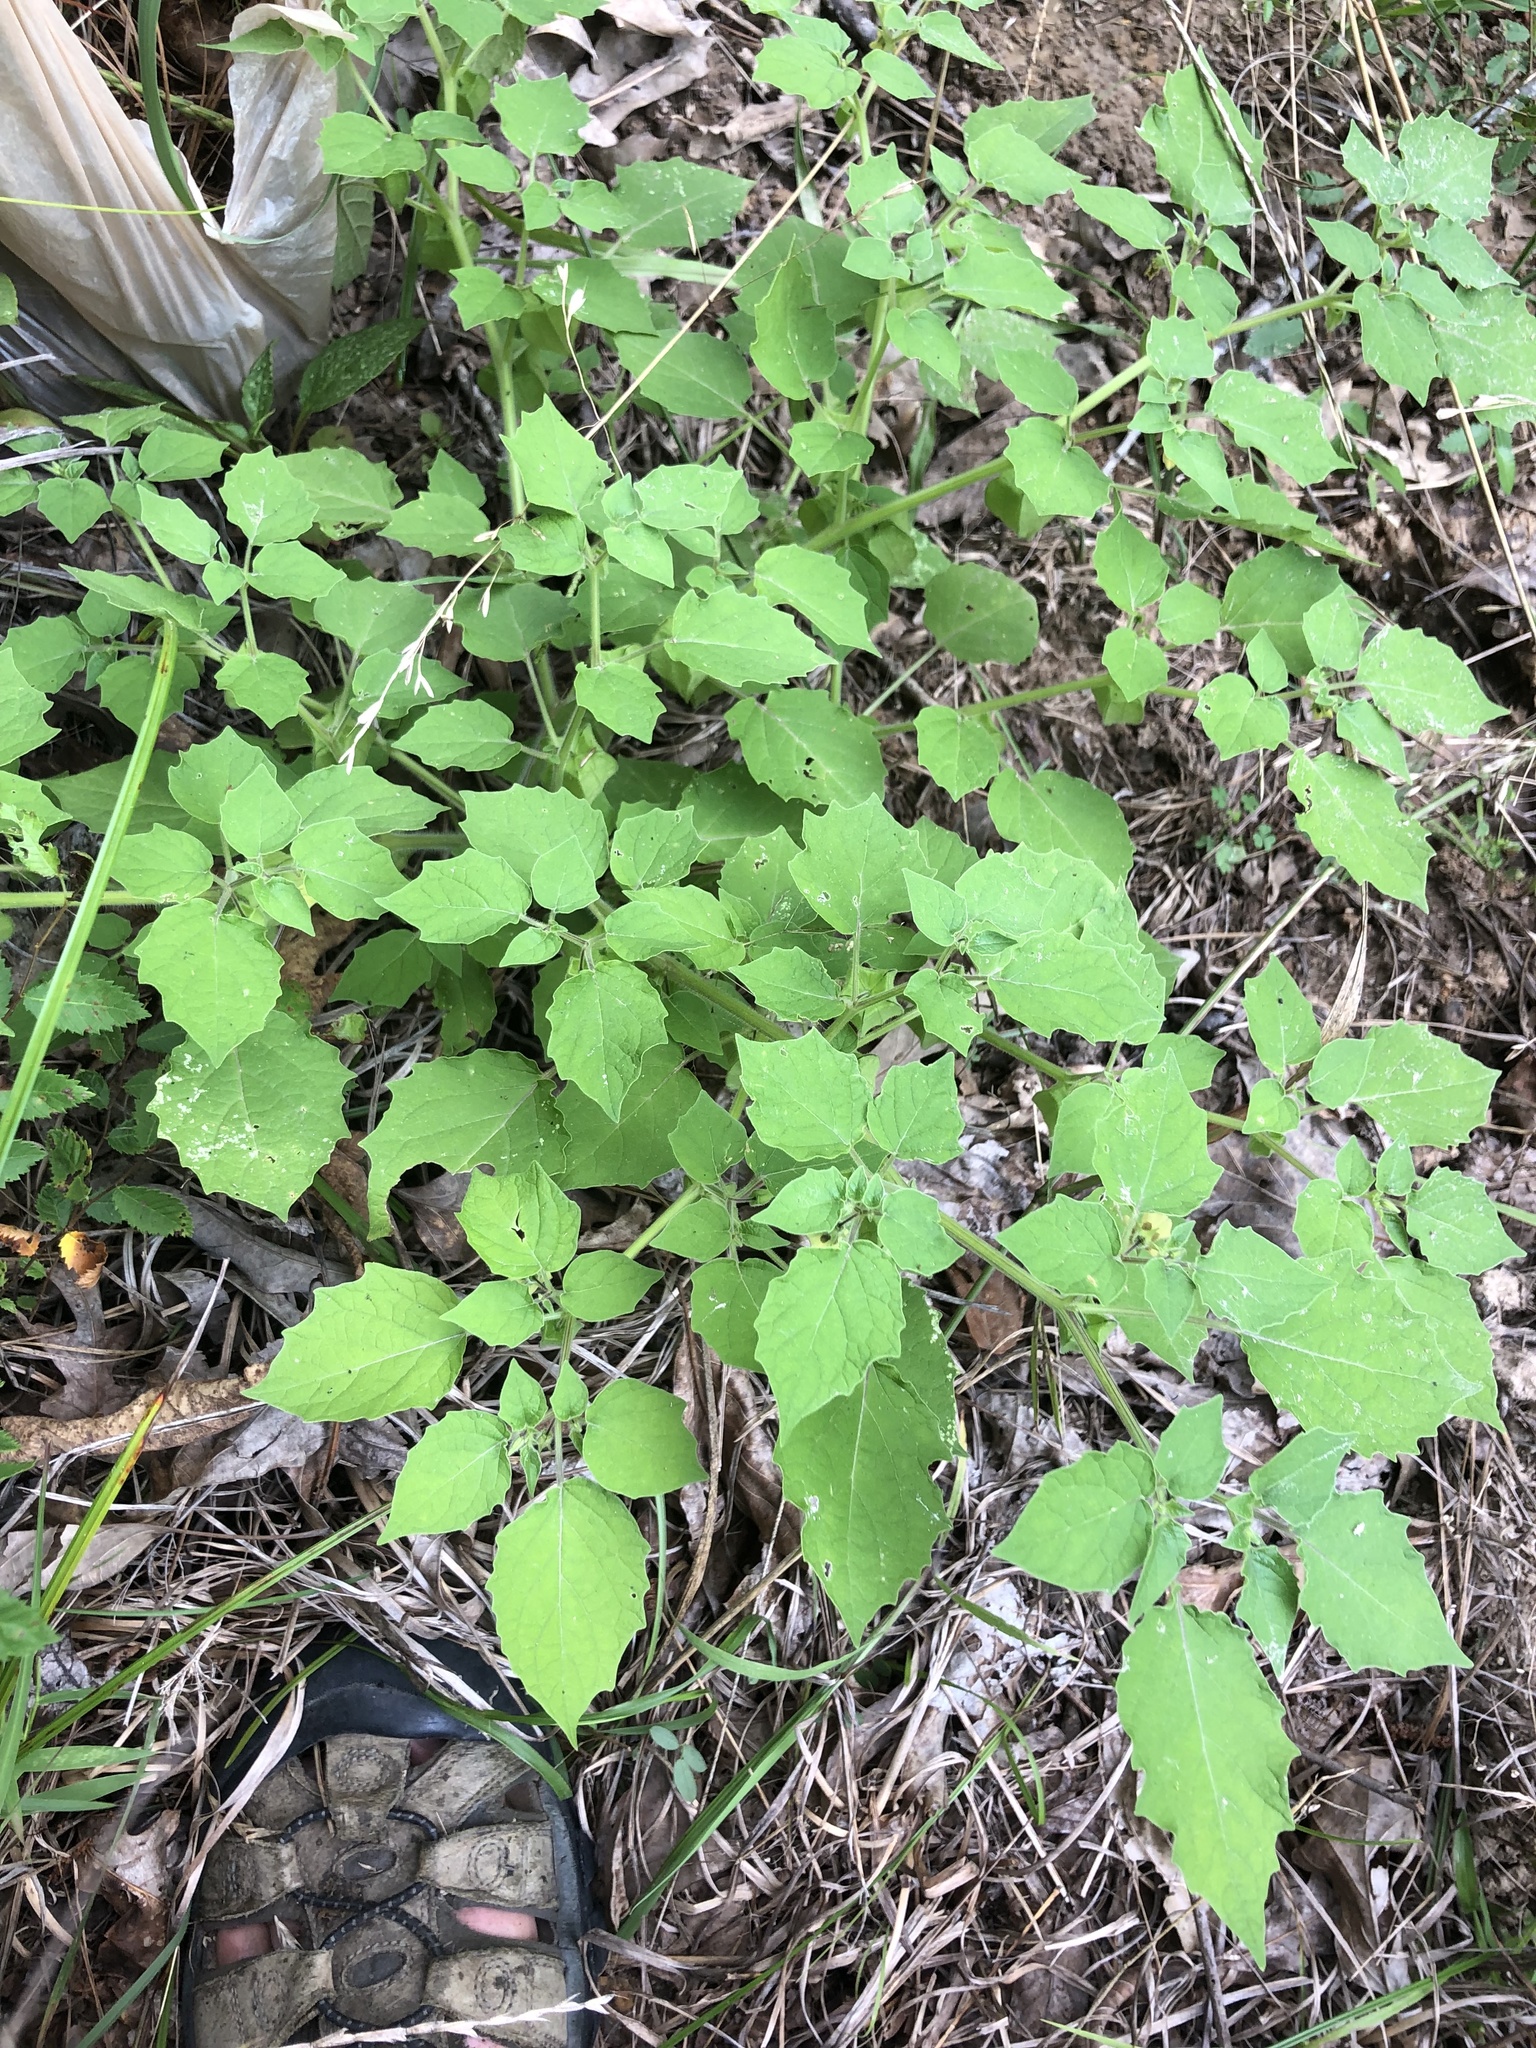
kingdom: Plantae
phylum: Tracheophyta
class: Magnoliopsida
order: Solanales
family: Solanaceae
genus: Physalis
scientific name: Physalis pubescens
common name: Downy ground-cherry
